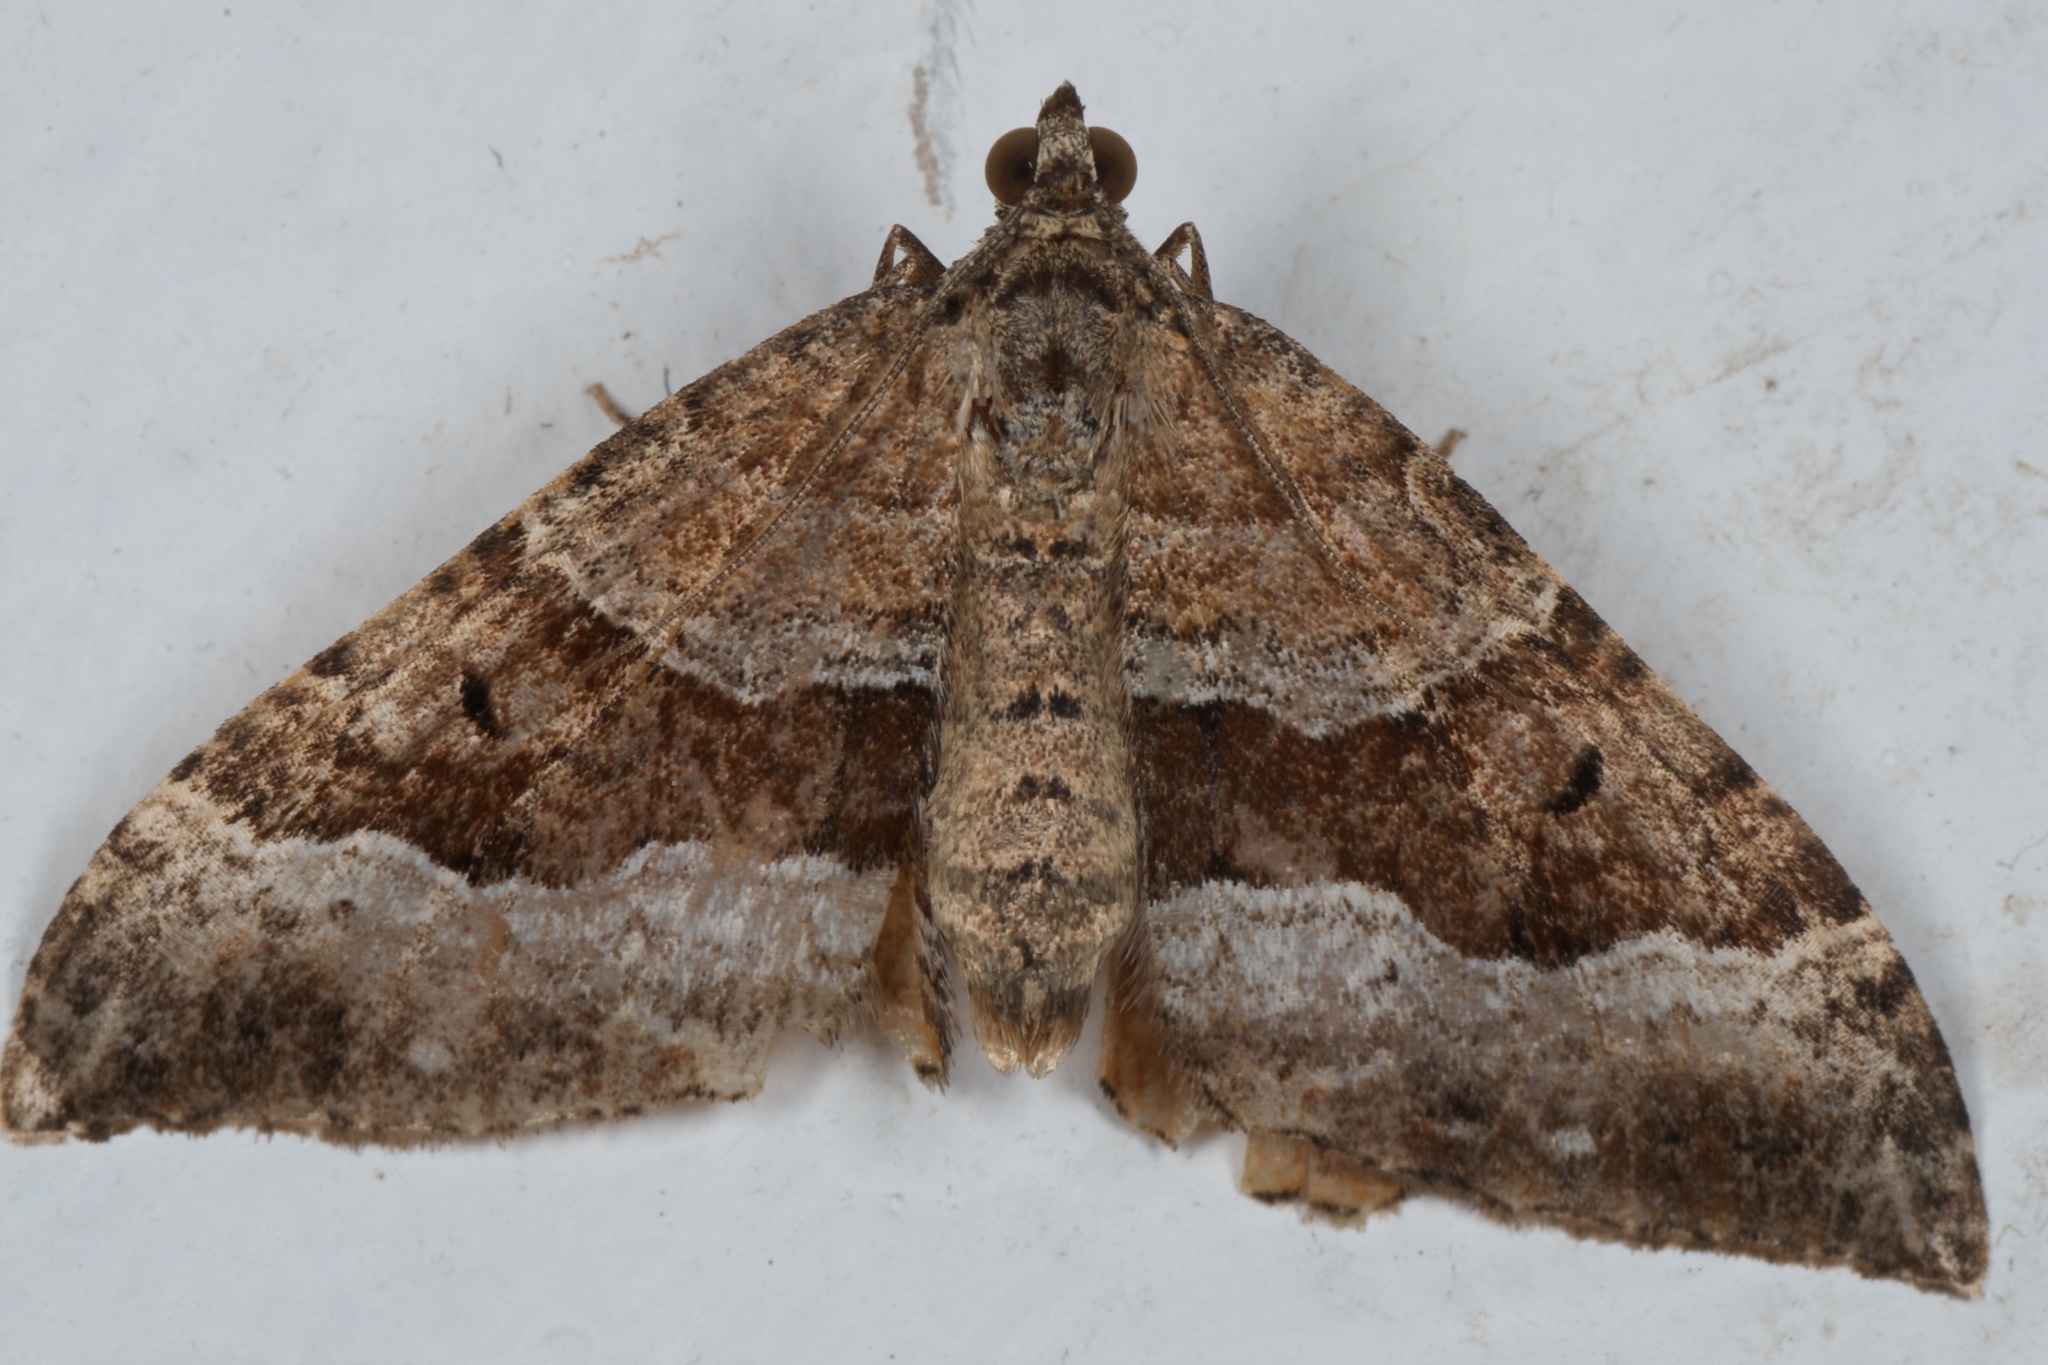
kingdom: Animalia
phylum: Arthropoda
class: Insecta
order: Lepidoptera
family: Geometridae
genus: Hydriomena
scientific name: Hydriomena deltoidata
